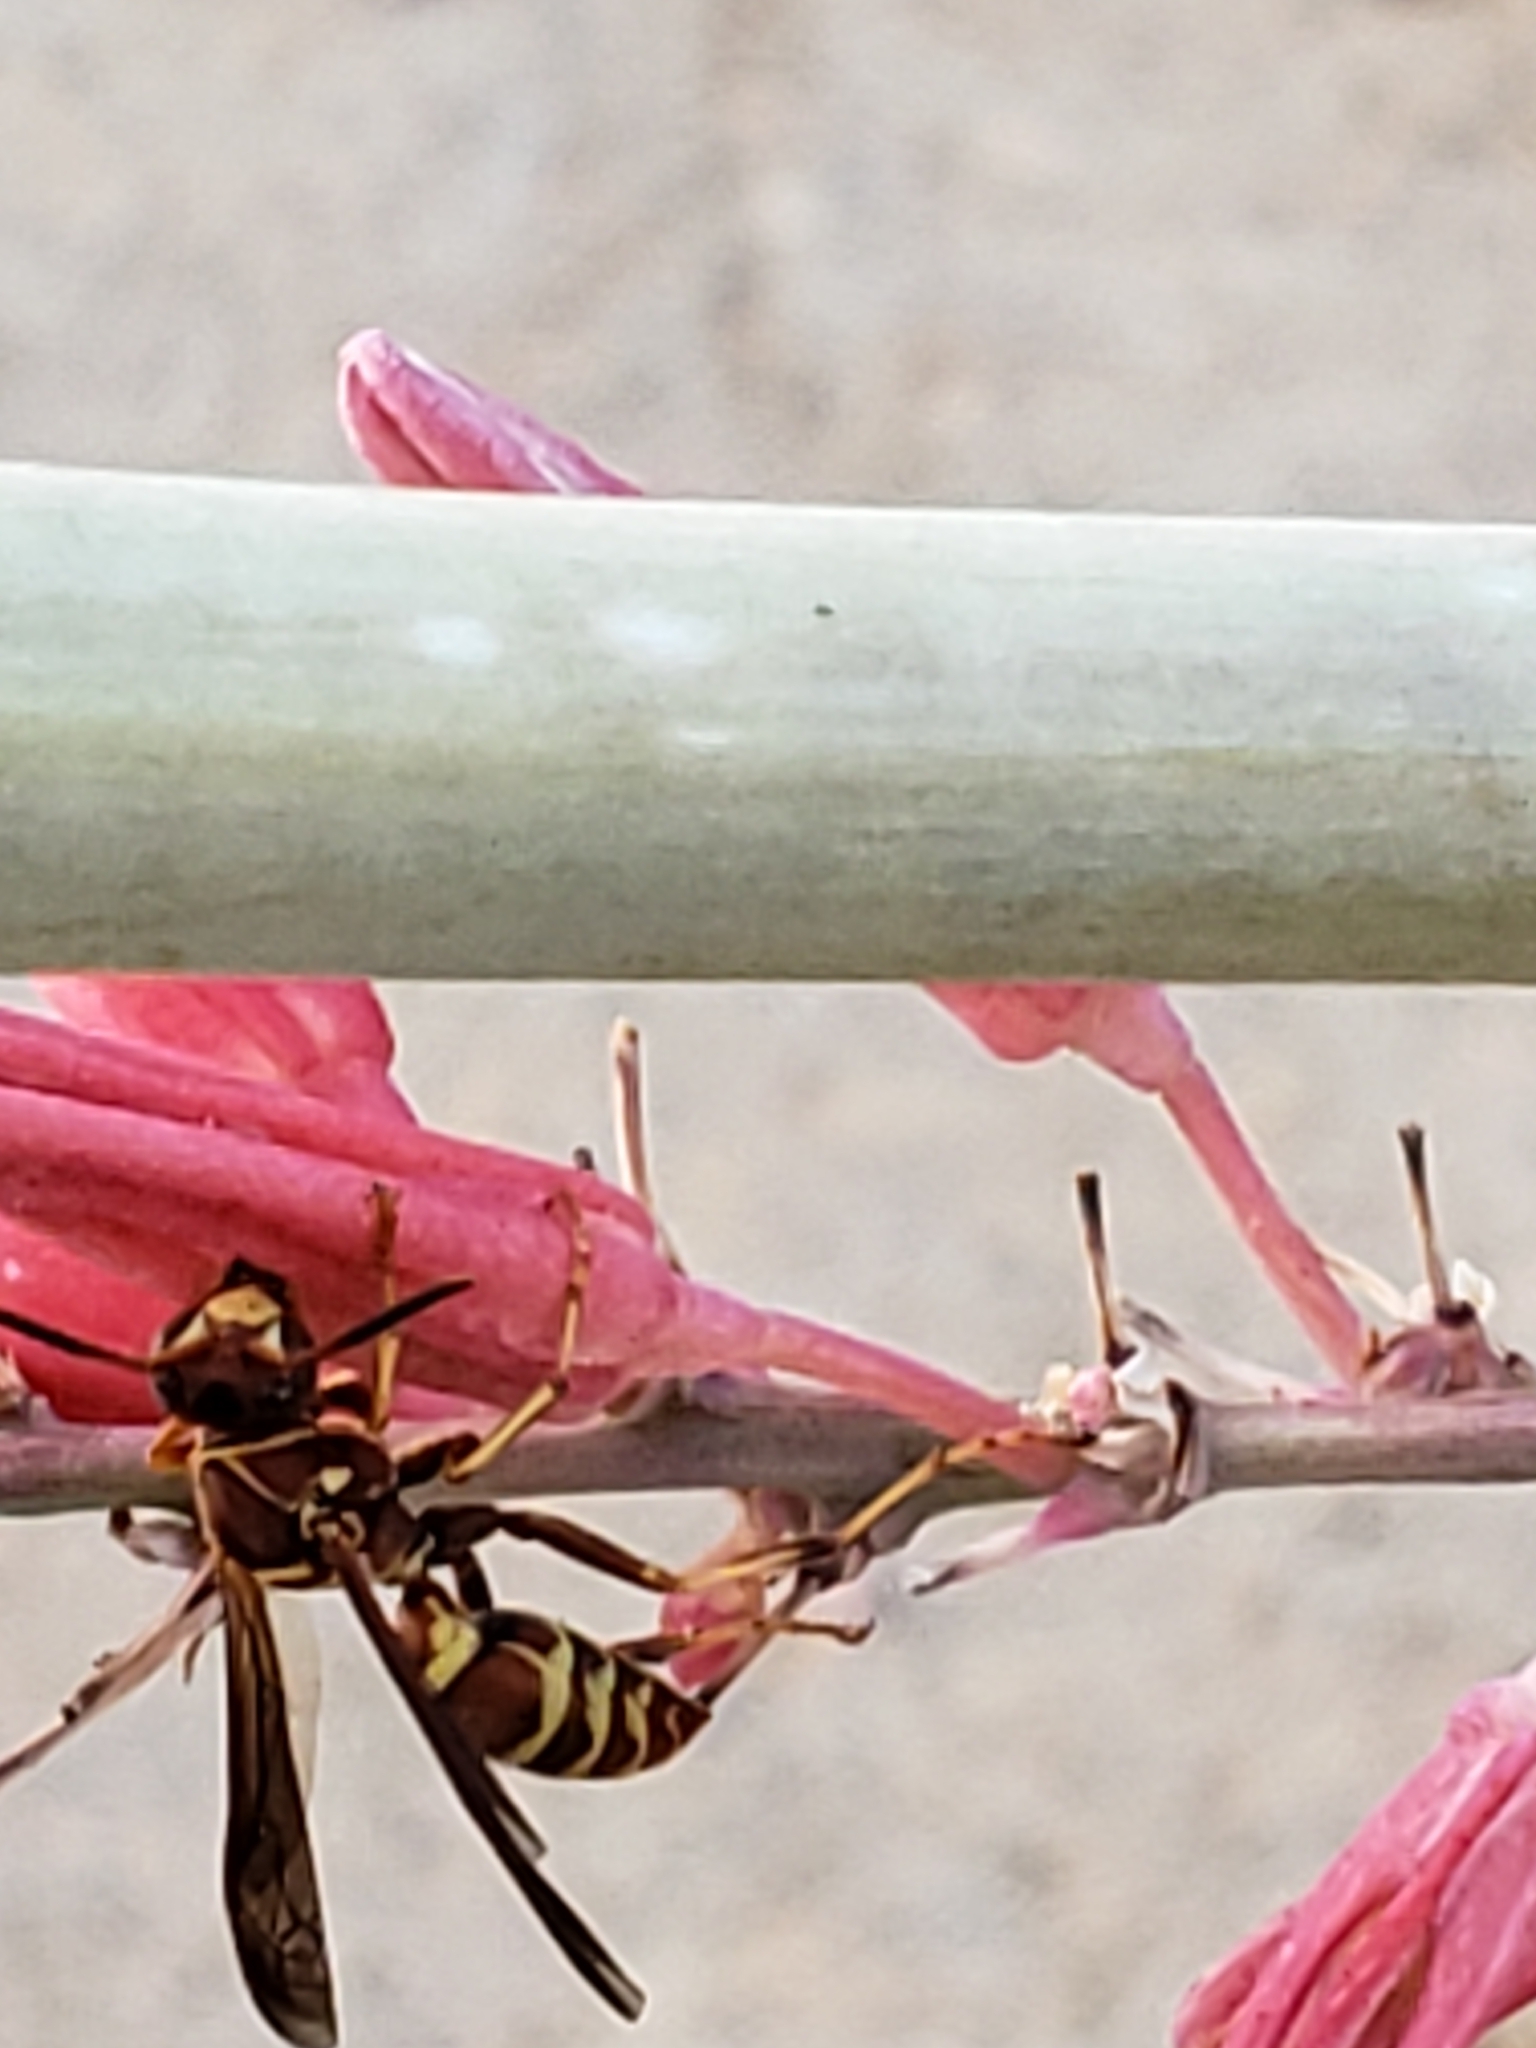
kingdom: Animalia
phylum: Arthropoda
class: Insecta
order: Hymenoptera
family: Eumenidae
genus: Polistes
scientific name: Polistes dorsalis
